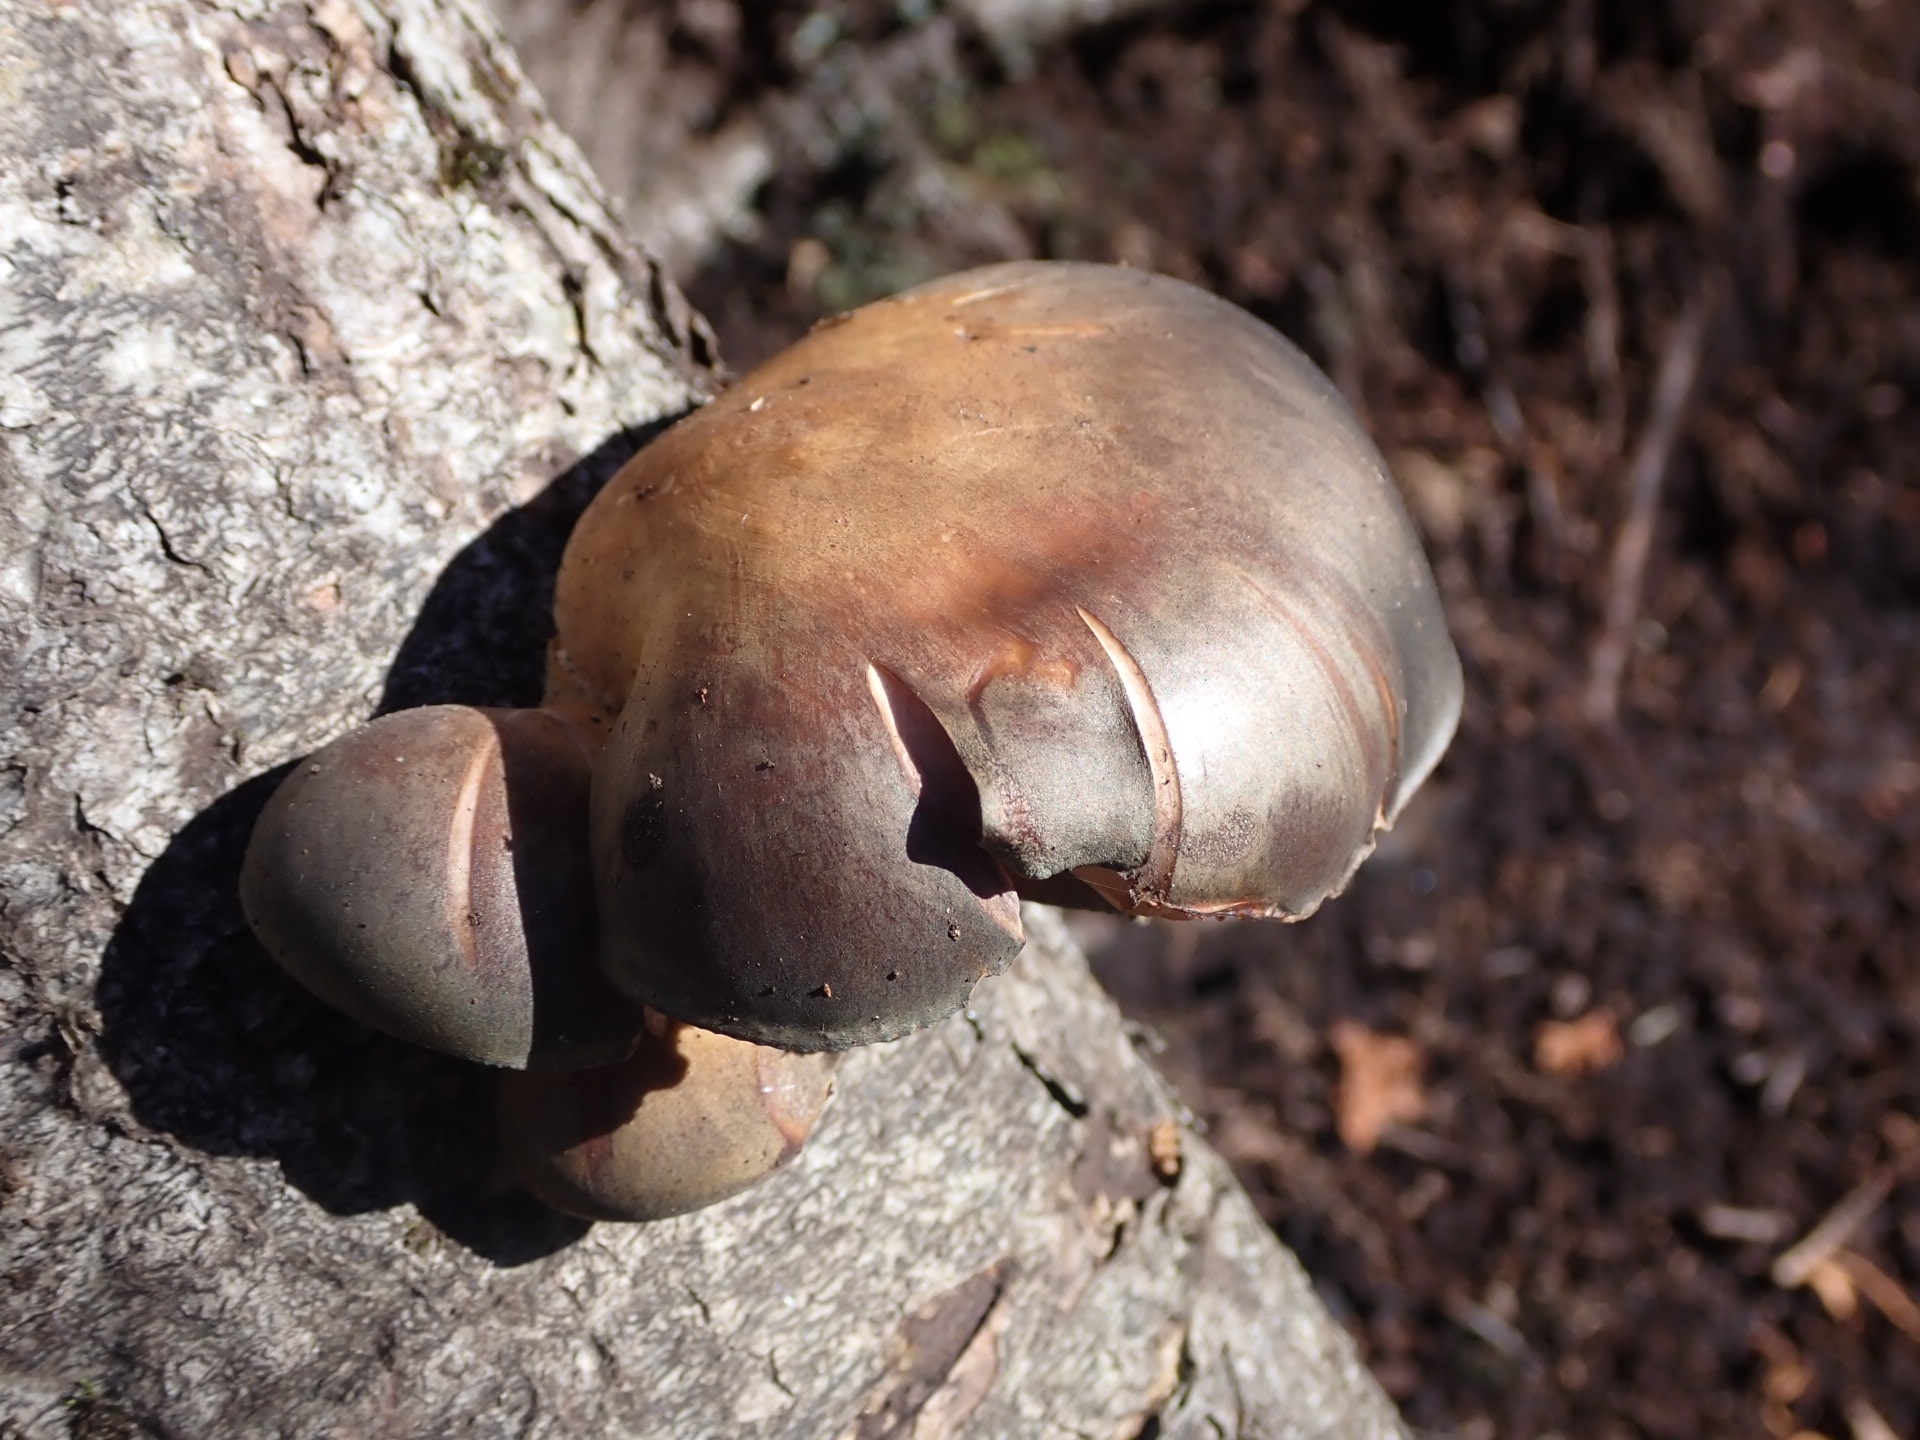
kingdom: Fungi
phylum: Basidiomycota
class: Agaricomycetes
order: Agaricales
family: Sarcomyxaceae
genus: Sarcomyxa
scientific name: Sarcomyxa serotina
